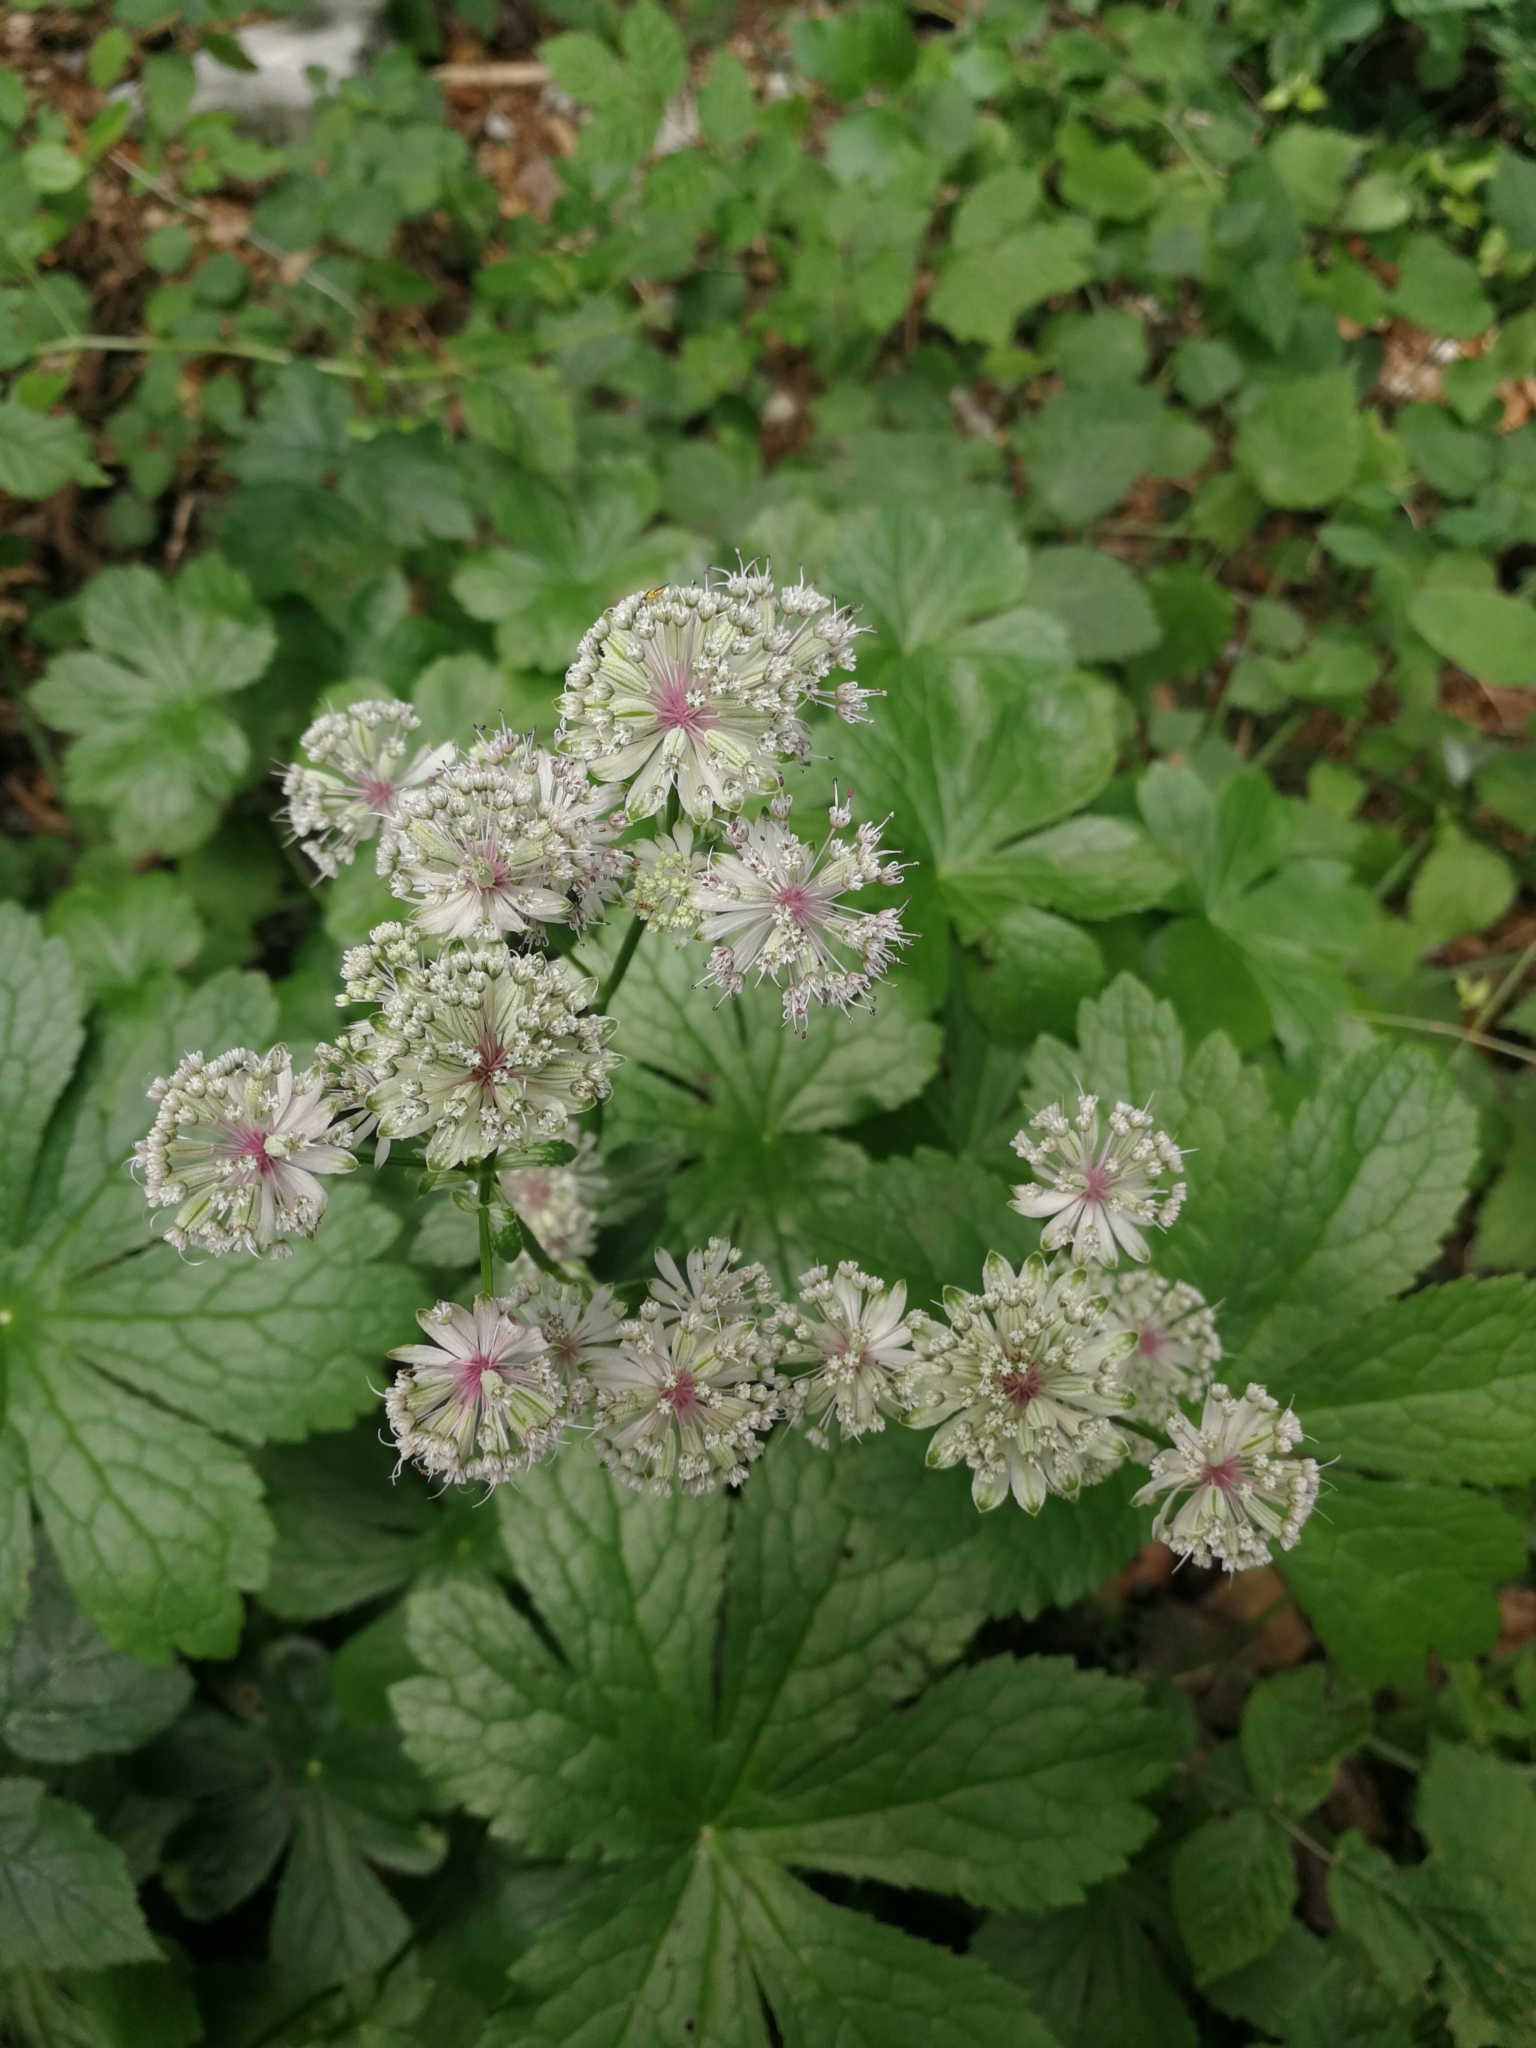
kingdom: Plantae
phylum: Tracheophyta
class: Magnoliopsida
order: Apiales
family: Apiaceae
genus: Astrantia
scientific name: Astrantia major
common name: Greater masterwort
